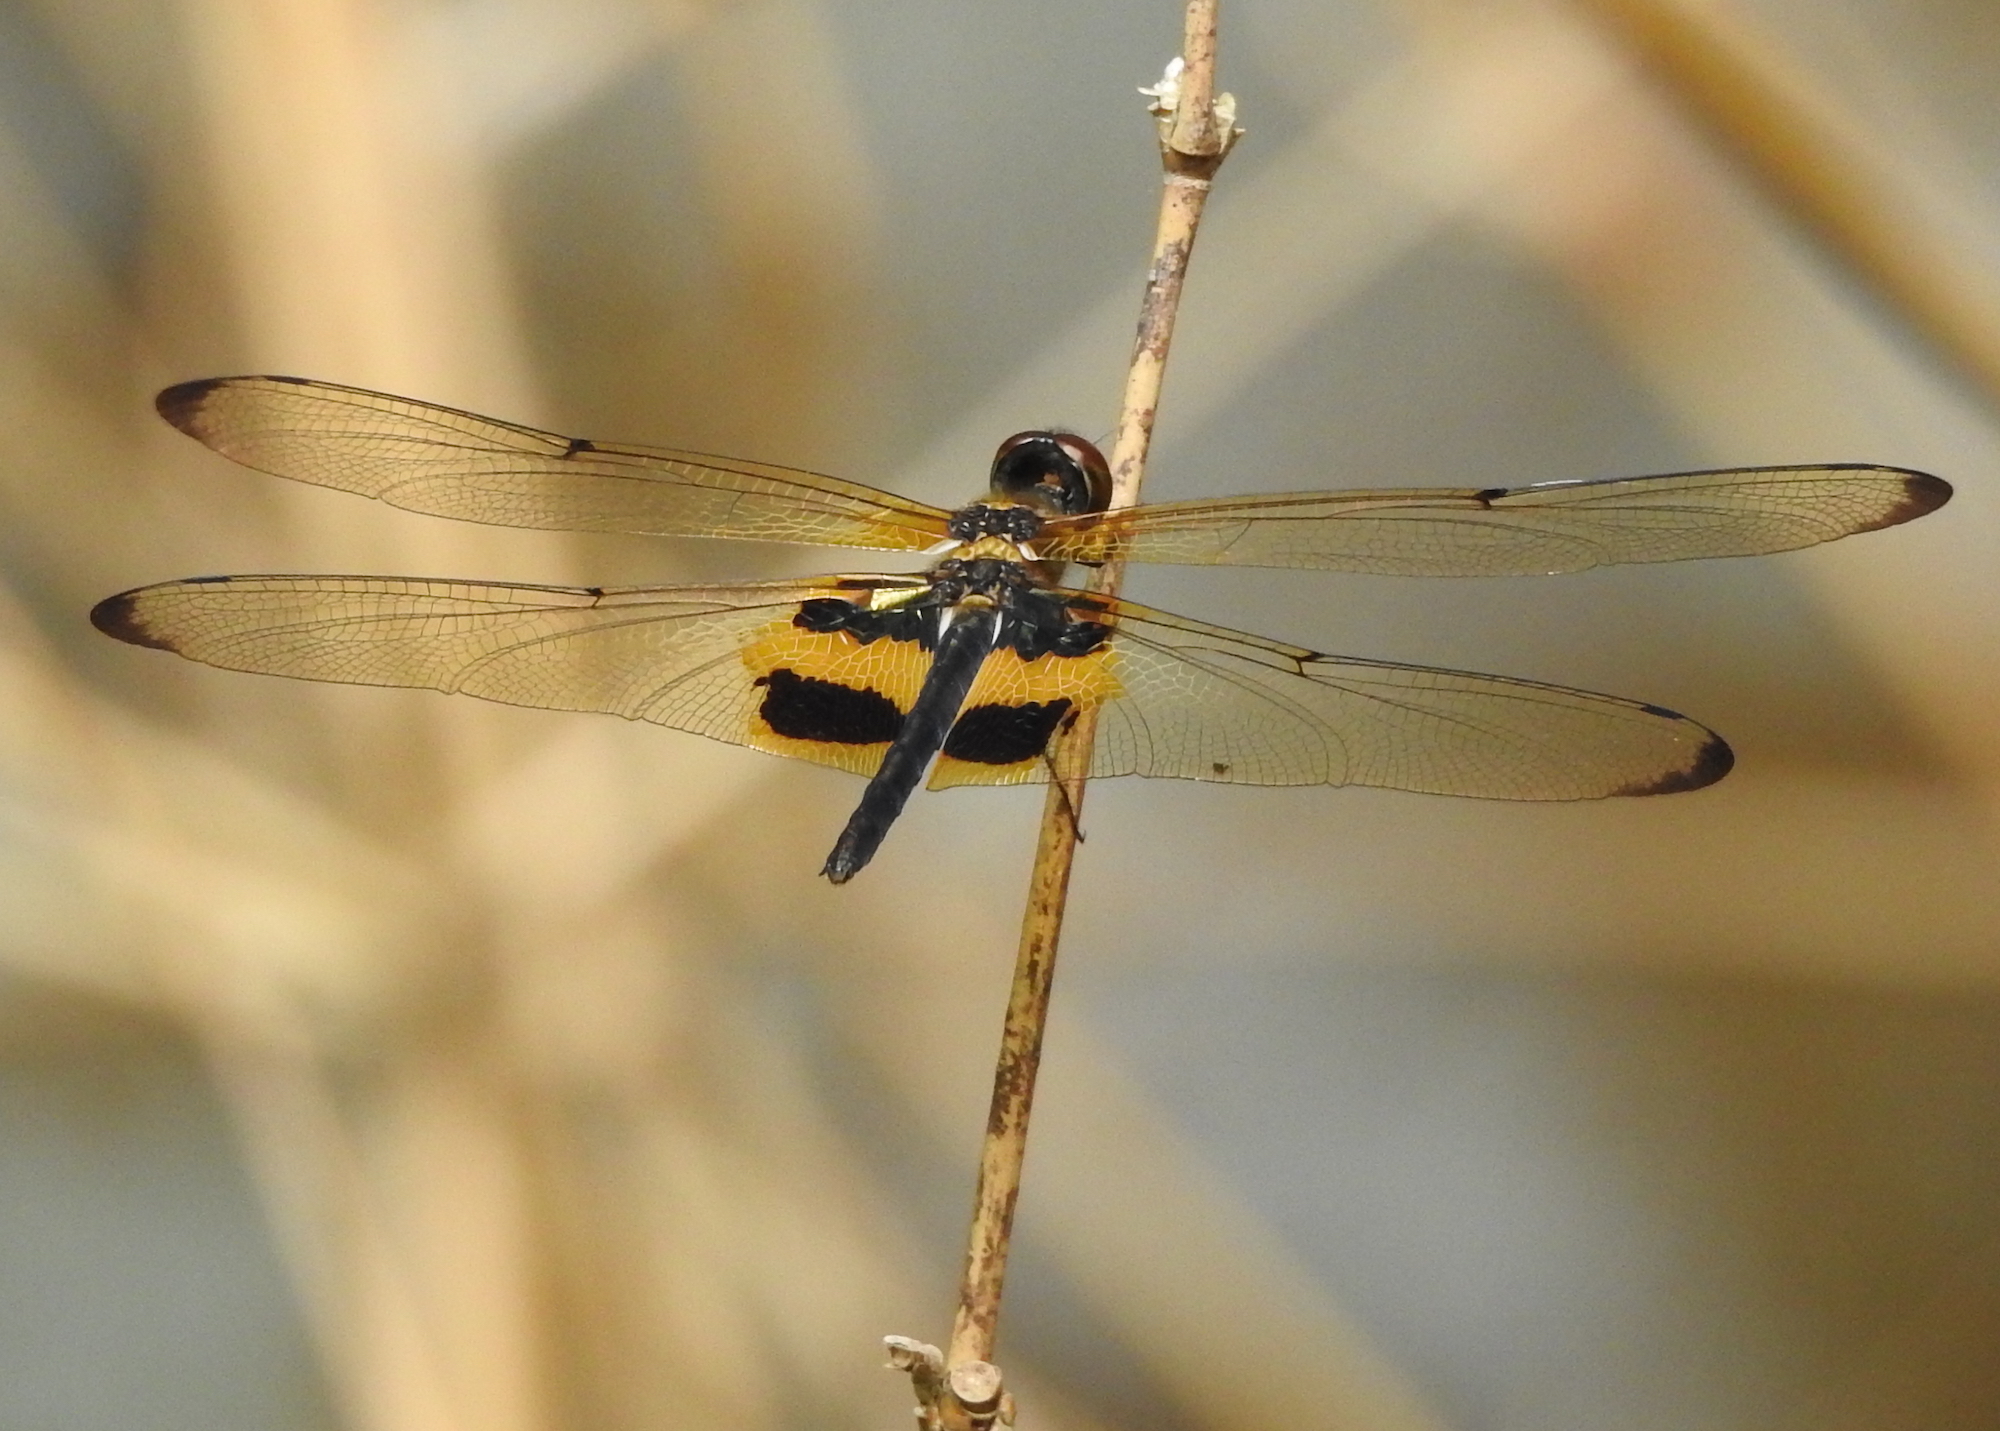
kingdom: Animalia
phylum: Arthropoda
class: Insecta
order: Odonata
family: Libellulidae
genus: Rhyothemis
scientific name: Rhyothemis phyllis
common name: Yellow-barred flutterer
